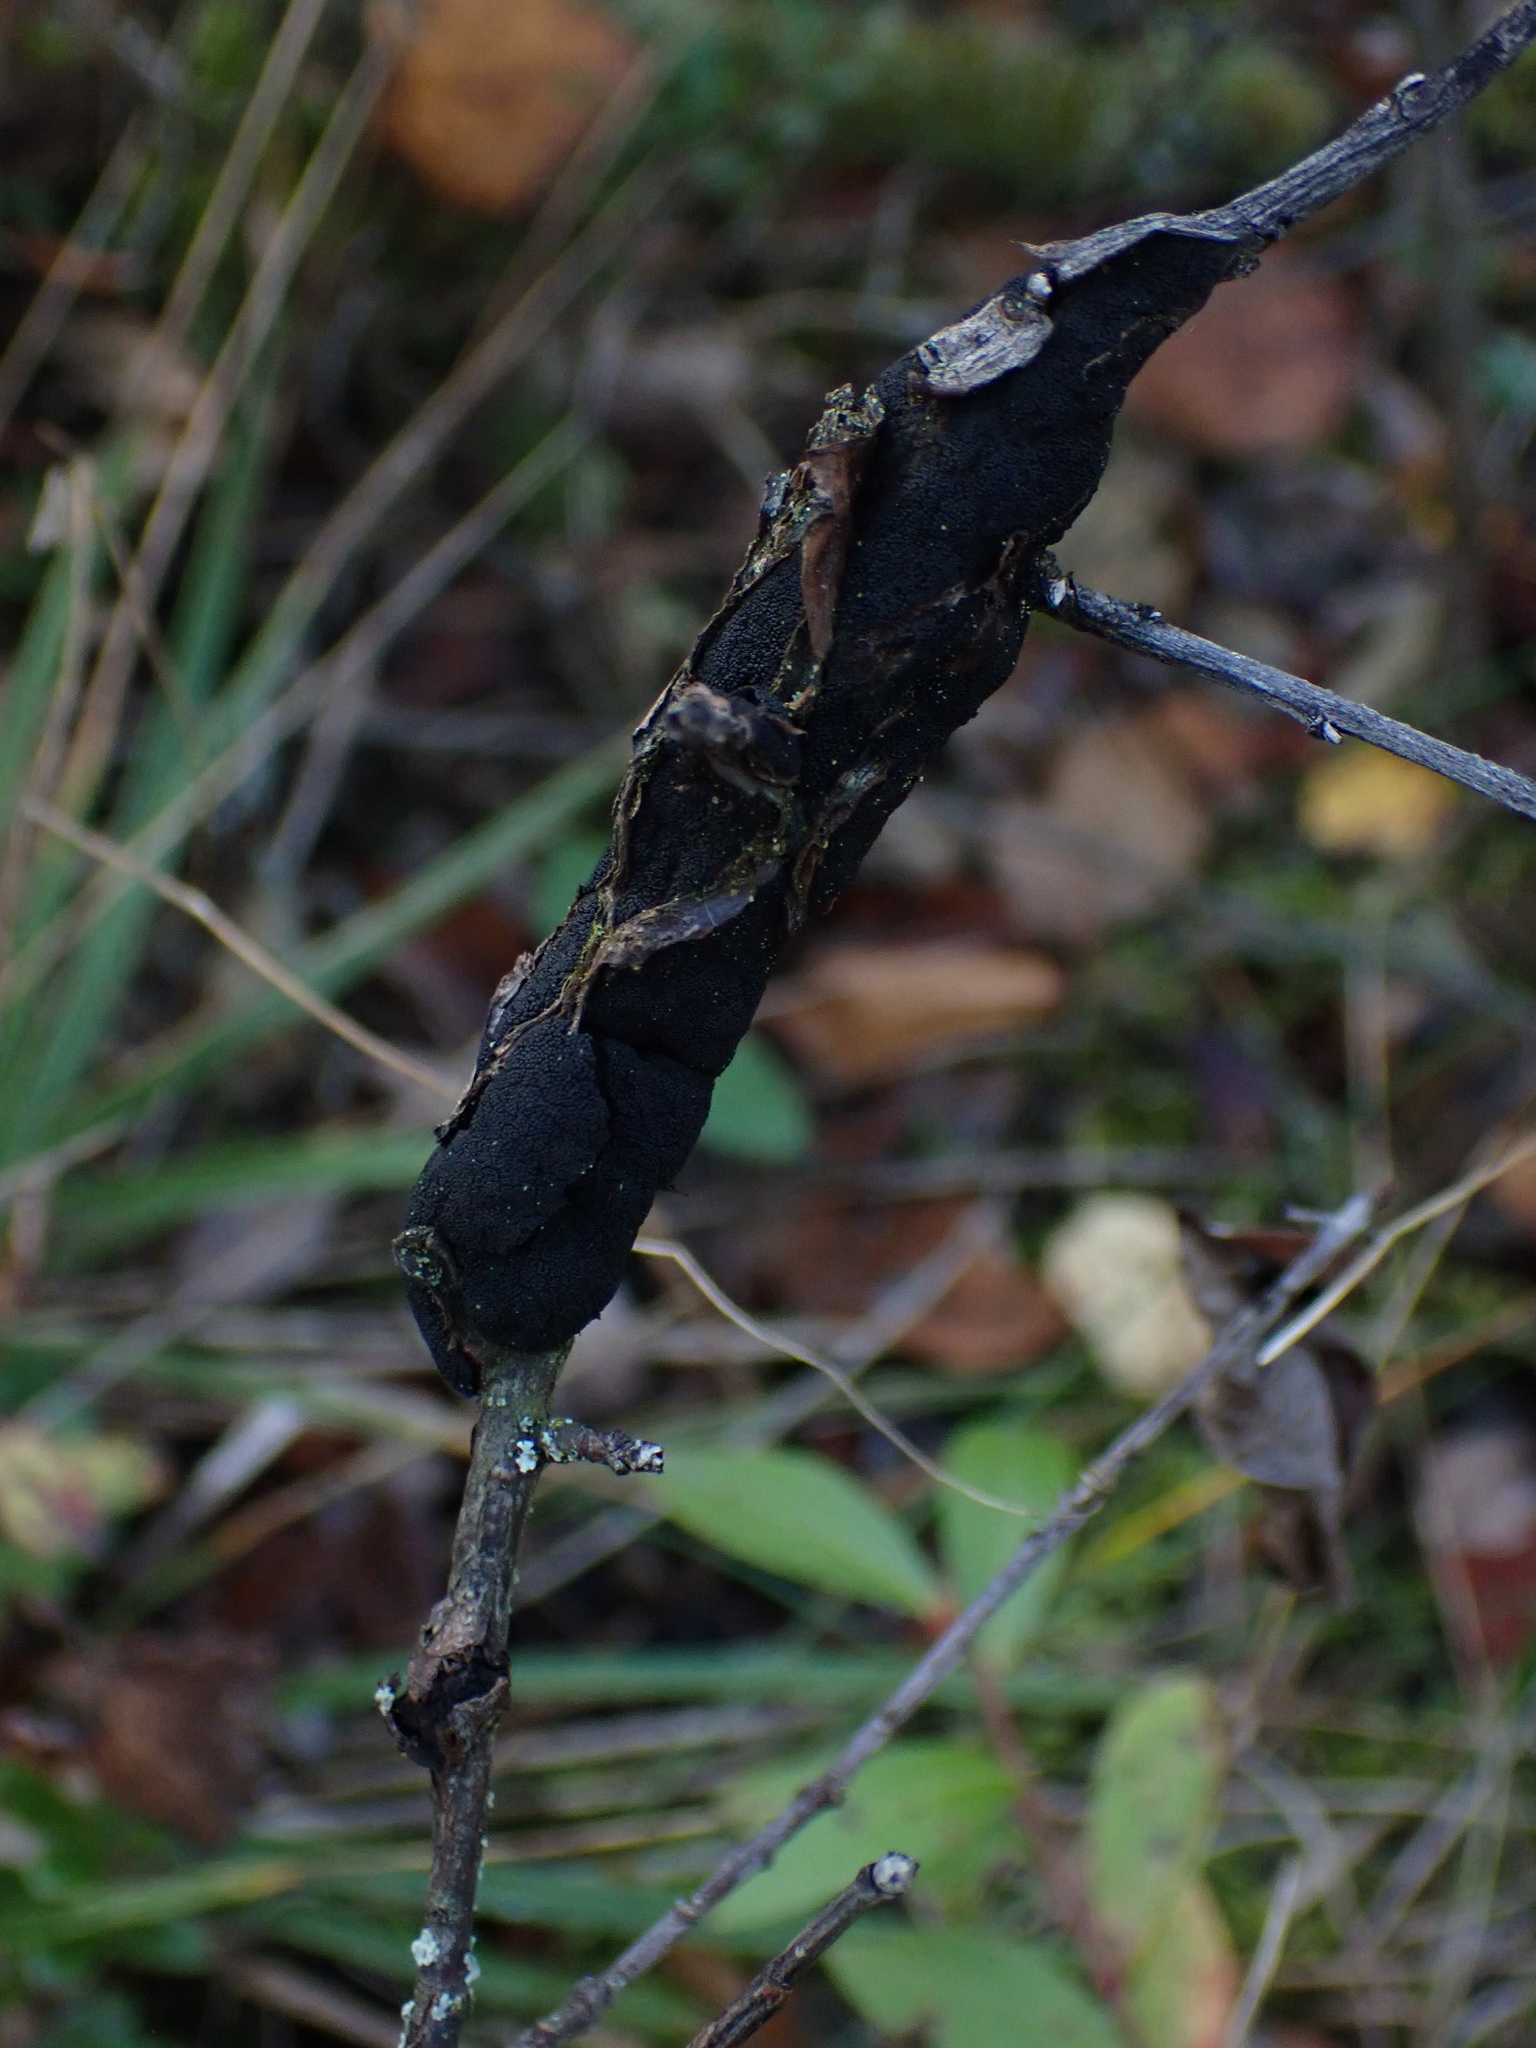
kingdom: Fungi
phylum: Ascomycota
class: Dothideomycetes
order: Venturiales
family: Venturiaceae
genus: Apiosporina
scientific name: Apiosporina morbosa
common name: Black knot
